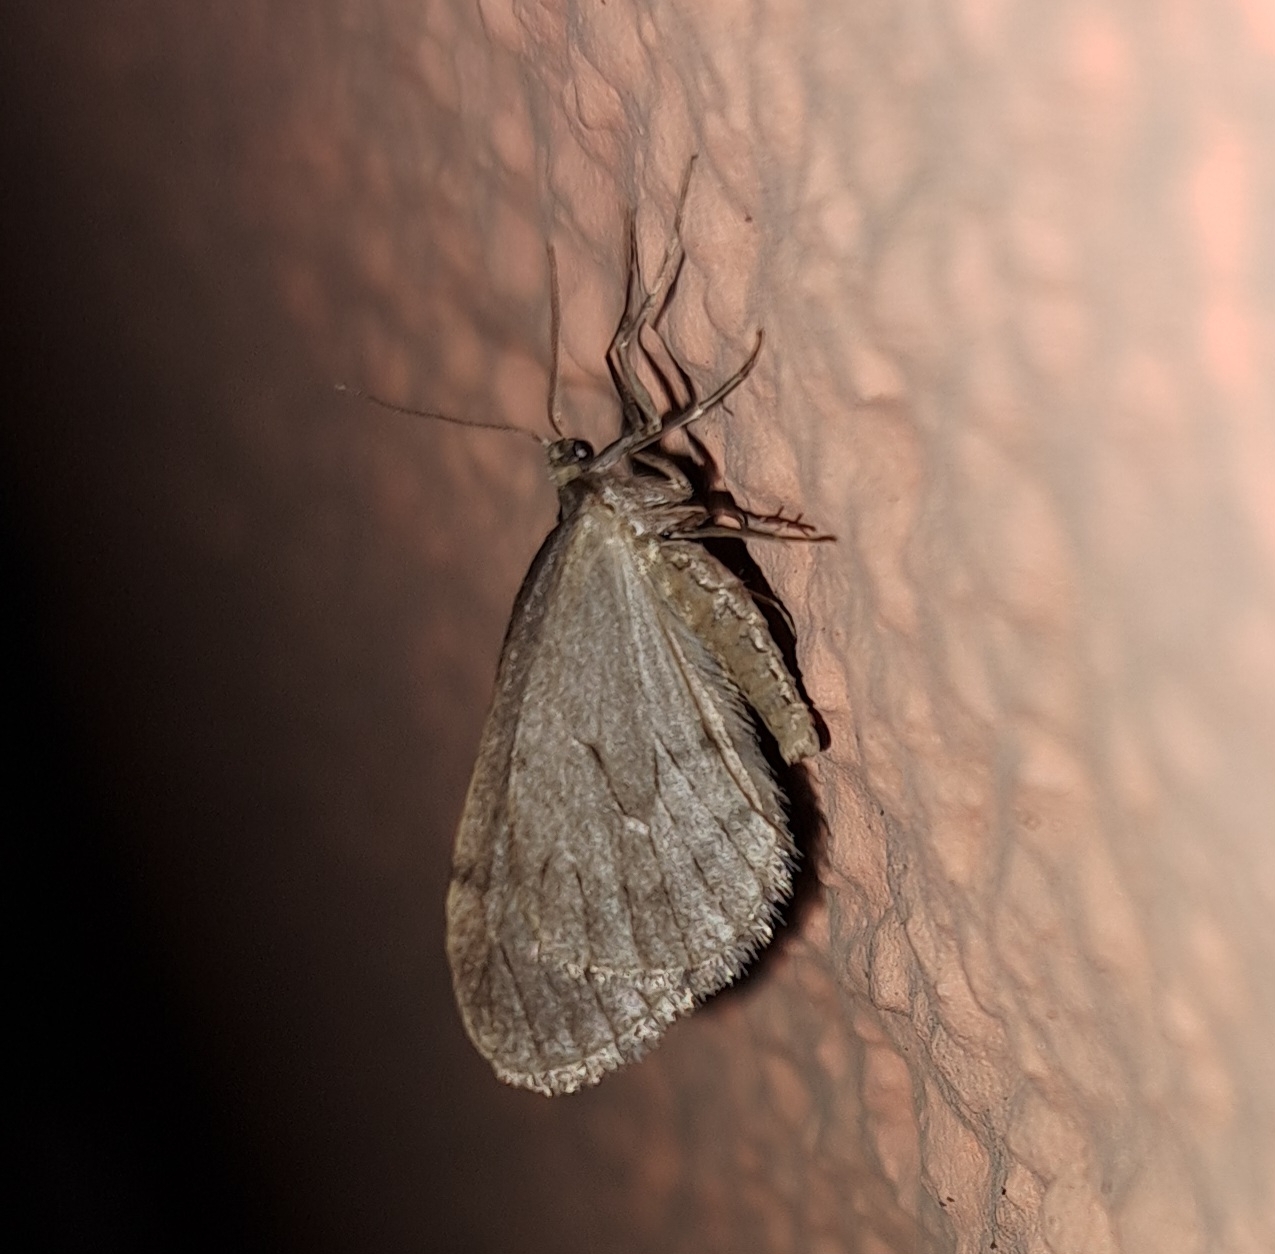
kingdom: Animalia
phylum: Arthropoda
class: Insecta
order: Lepidoptera
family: Geometridae
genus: Operophtera
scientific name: Operophtera brumata
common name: Winter moth
